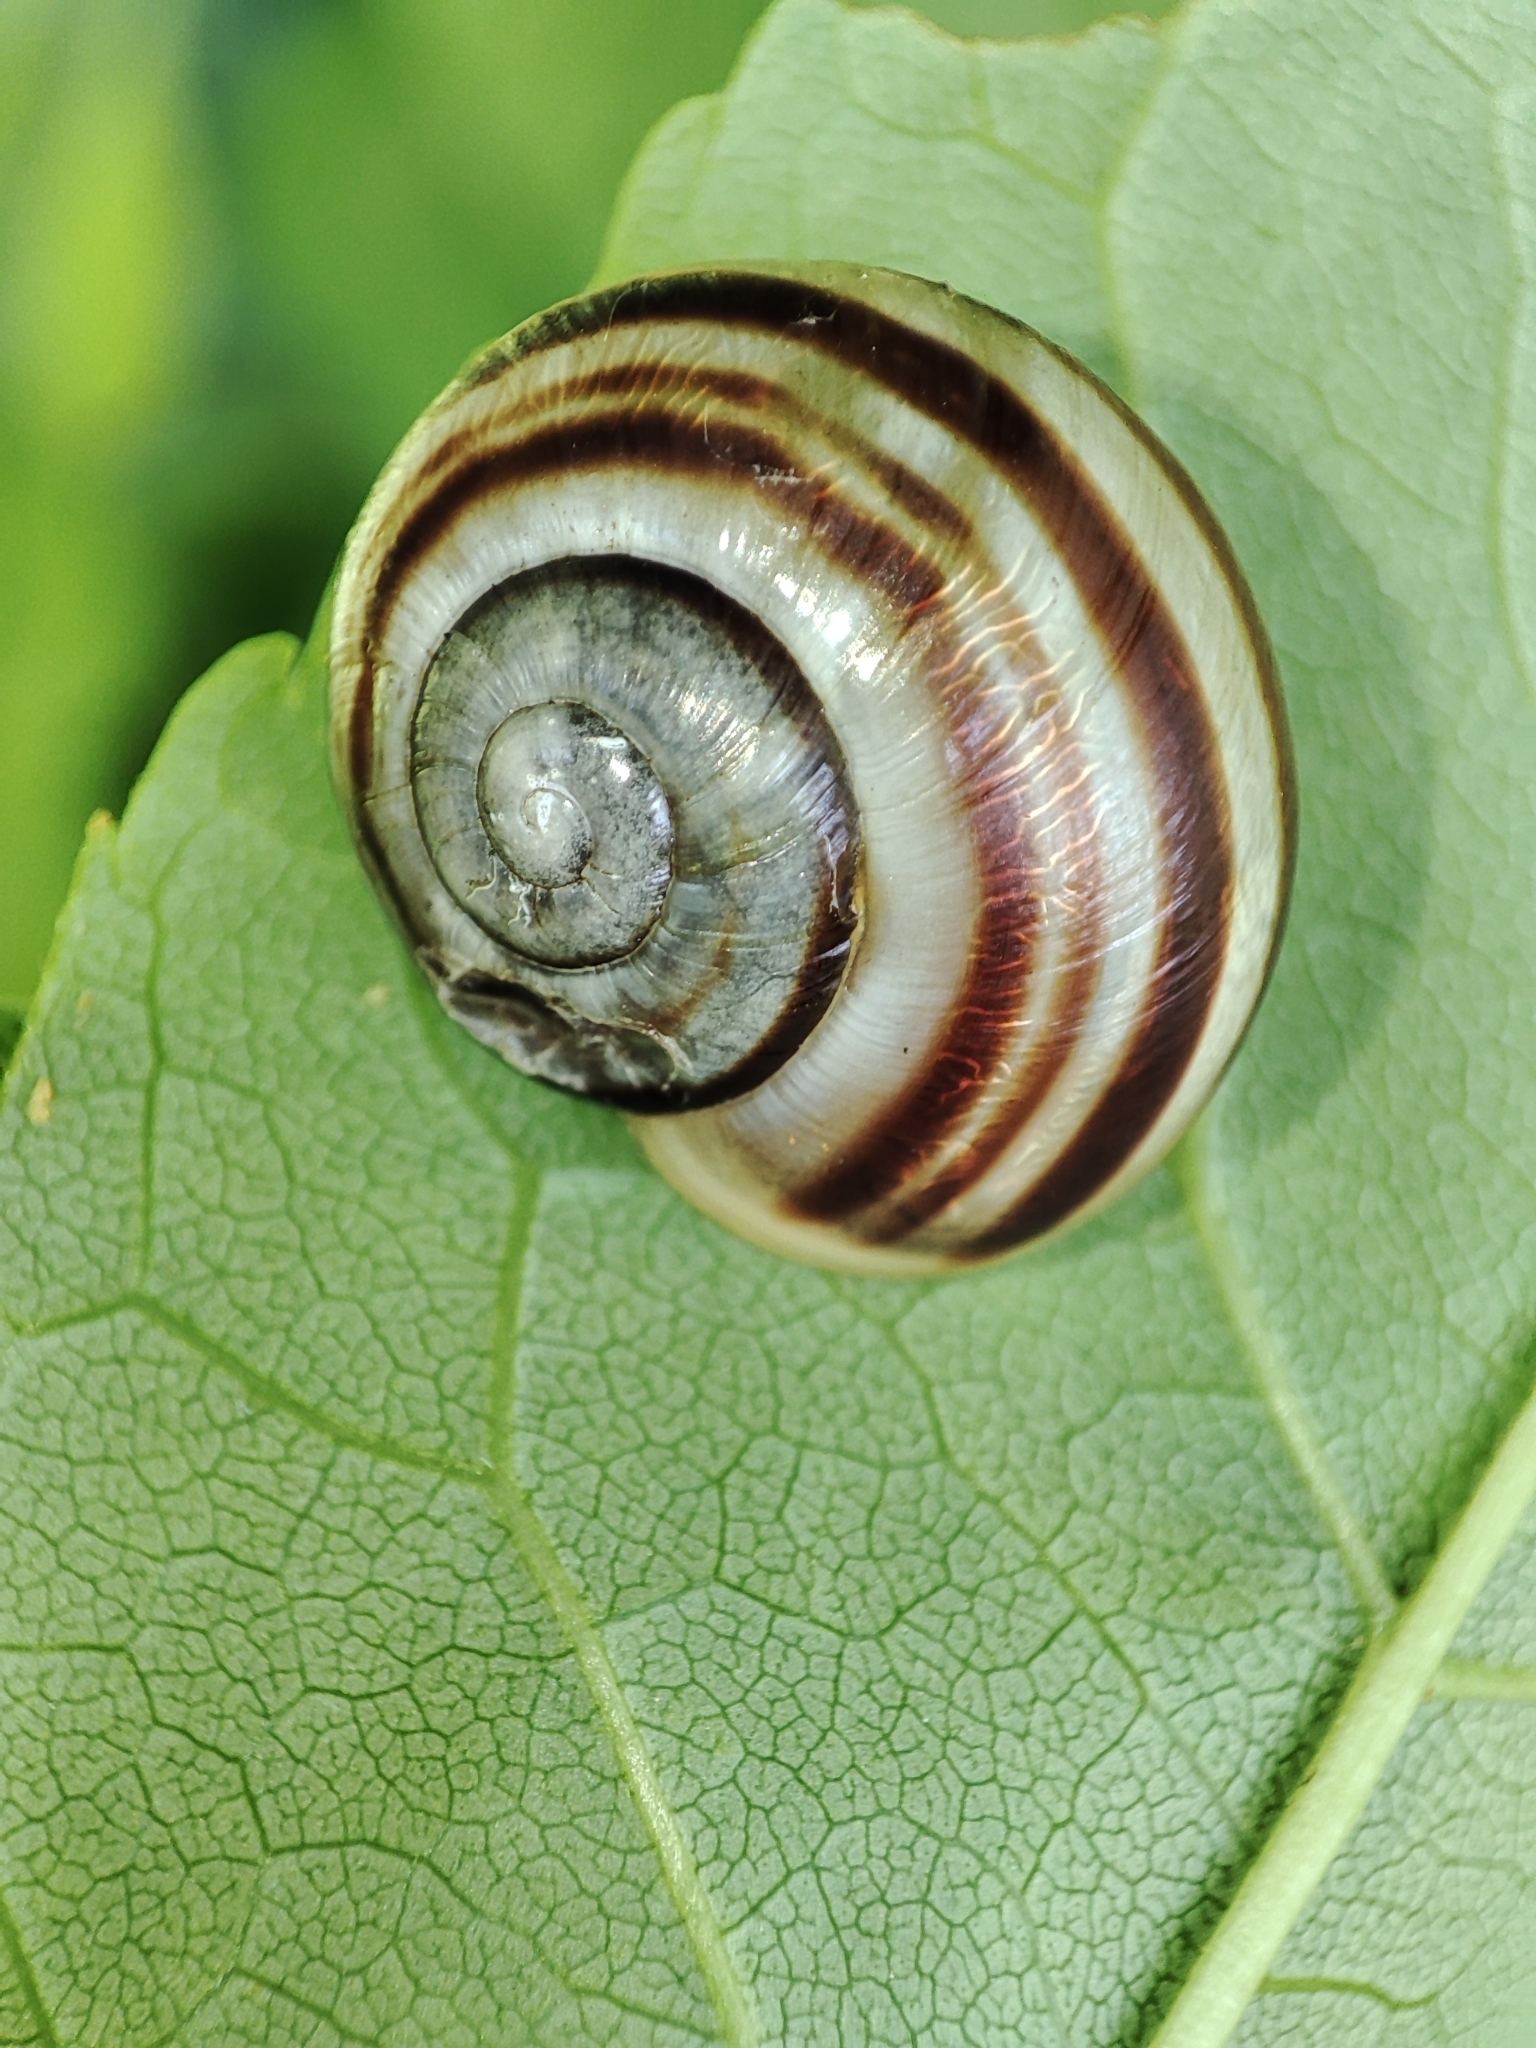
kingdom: Animalia
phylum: Mollusca
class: Gastropoda
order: Stylommatophora
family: Helicidae
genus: Cepaea
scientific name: Cepaea hortensis
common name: White-lip gardensnail
